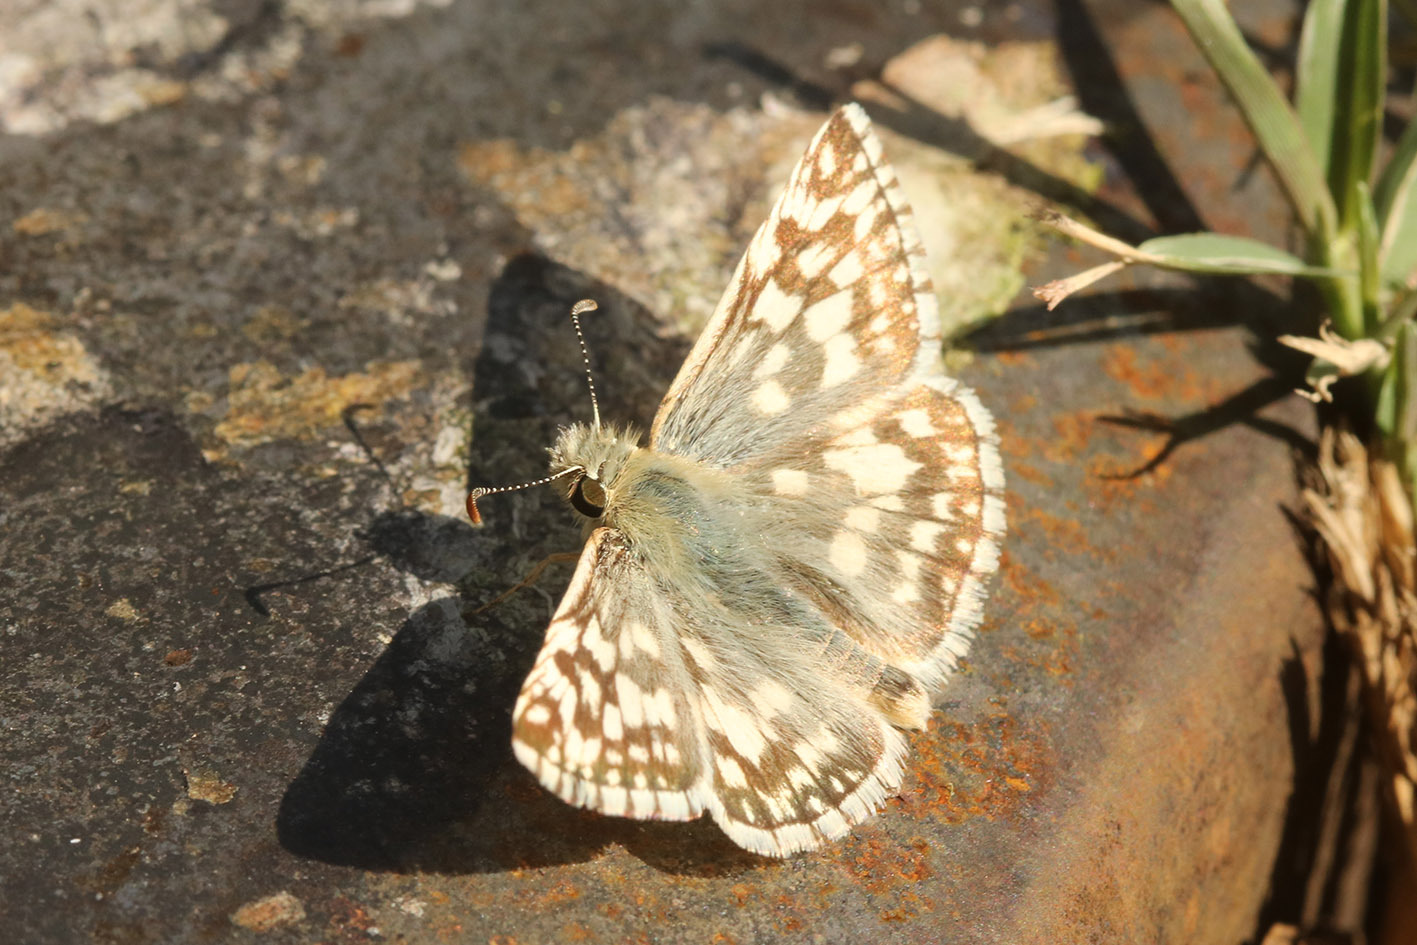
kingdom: Animalia
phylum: Arthropoda
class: Insecta
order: Lepidoptera
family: Hesperiidae
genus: Heliopetes
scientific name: Heliopetes americanus
